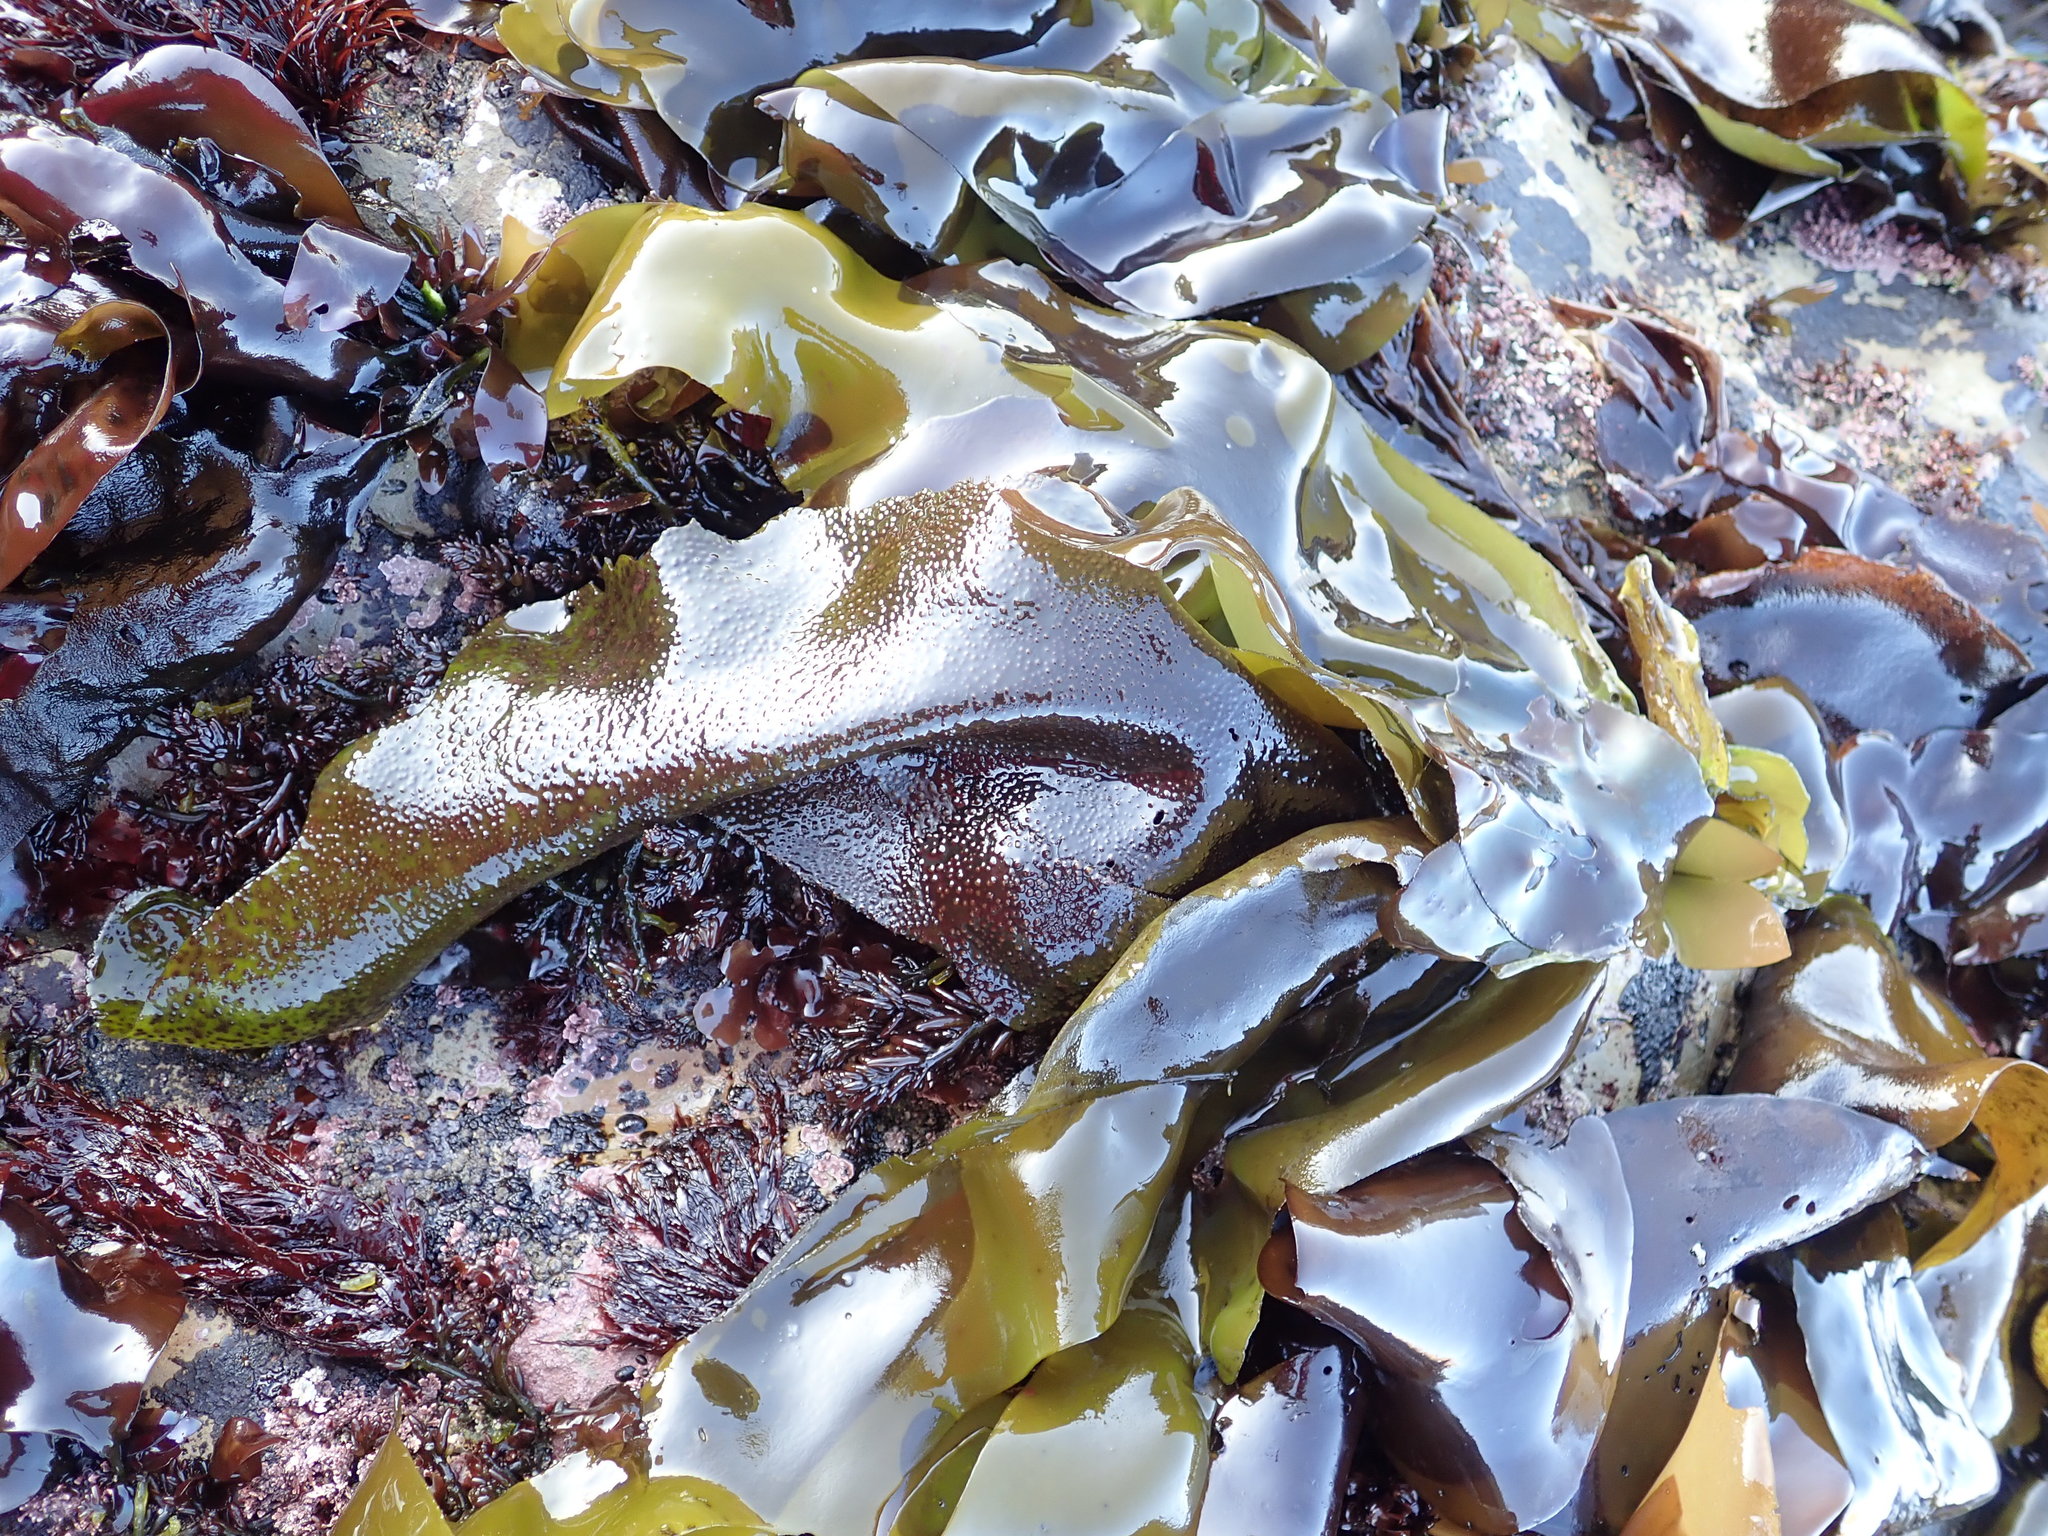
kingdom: Plantae
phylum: Rhodophyta
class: Florideophyceae
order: Gigartinales
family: Gigartinaceae
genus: Mazzaella
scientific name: Mazzaella flaccida
